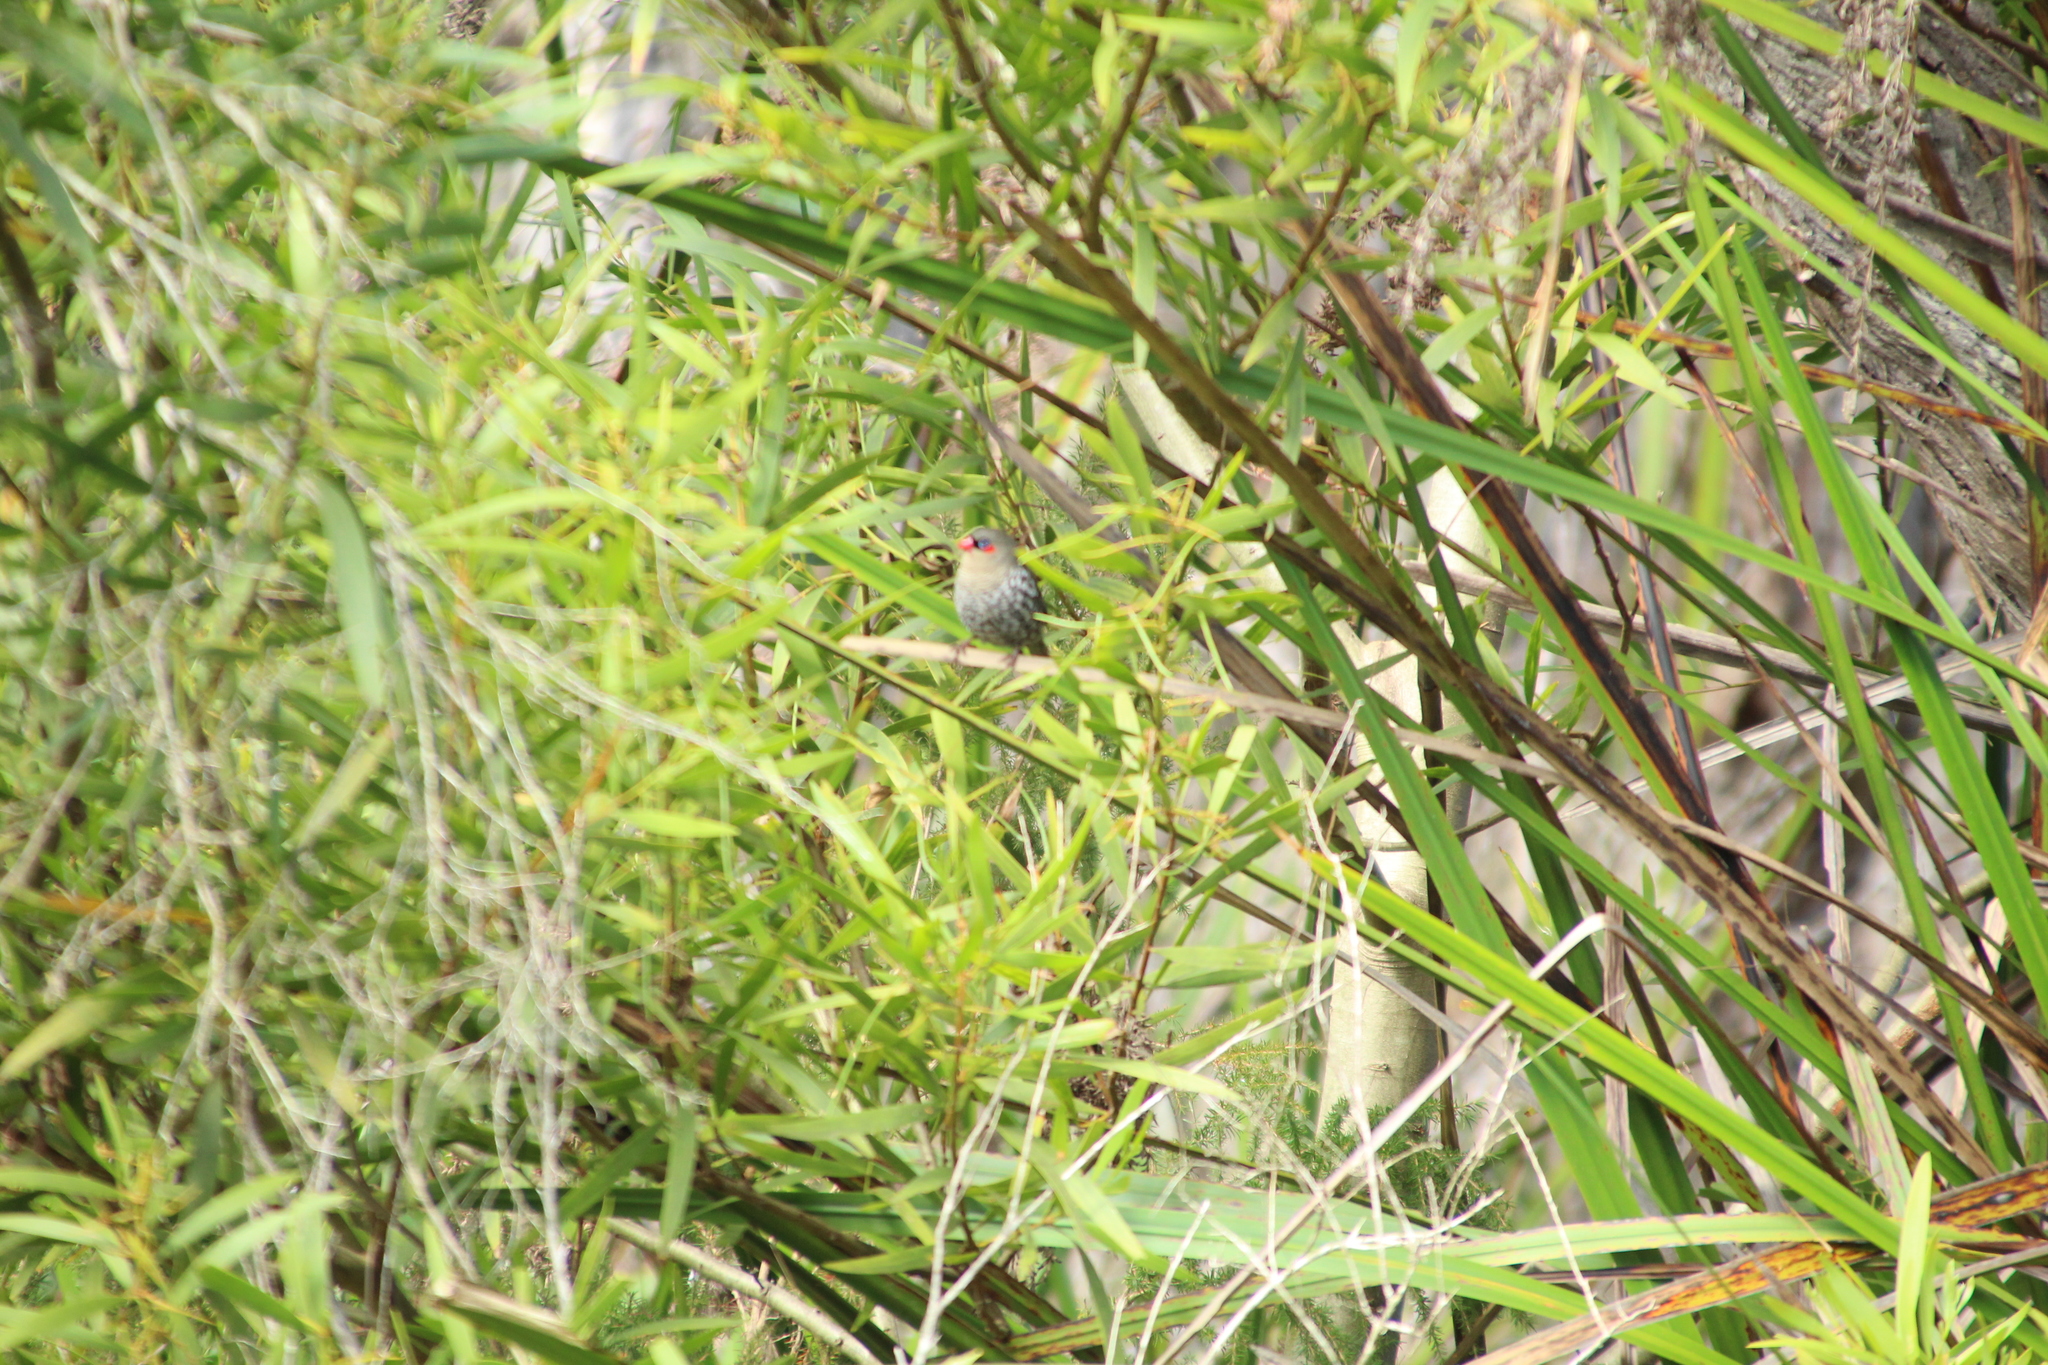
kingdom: Animalia
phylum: Chordata
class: Aves
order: Passeriformes
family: Estrildidae
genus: Stagonopleura
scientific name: Stagonopleura oculata
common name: Red-eared firetail
